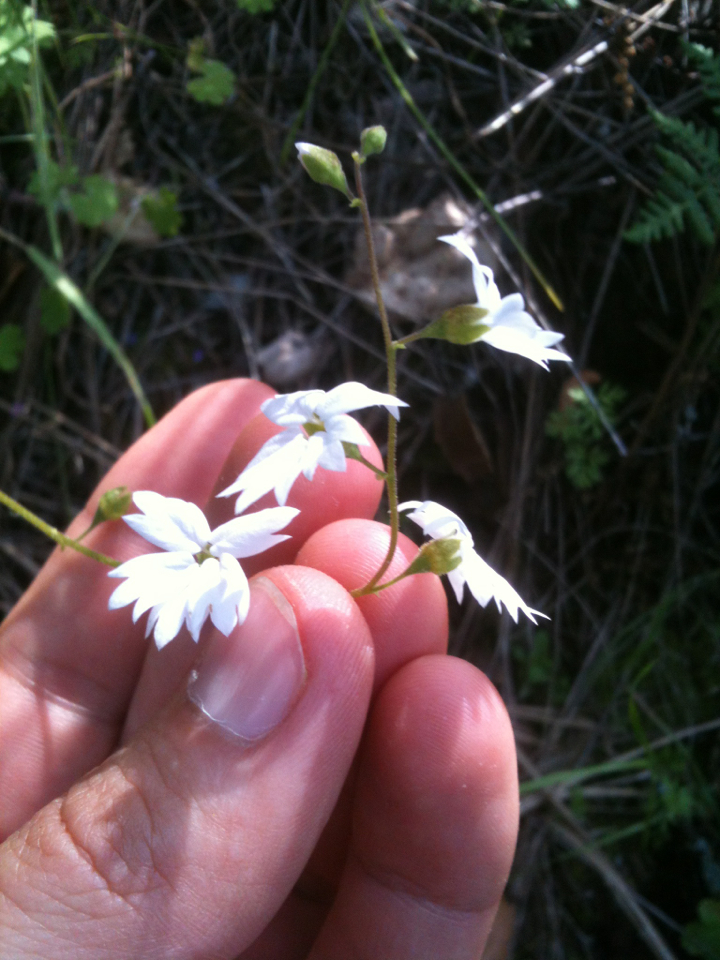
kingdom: Plantae
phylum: Tracheophyta
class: Magnoliopsida
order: Saxifragales
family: Saxifragaceae
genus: Lithophragma
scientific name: Lithophragma affine
